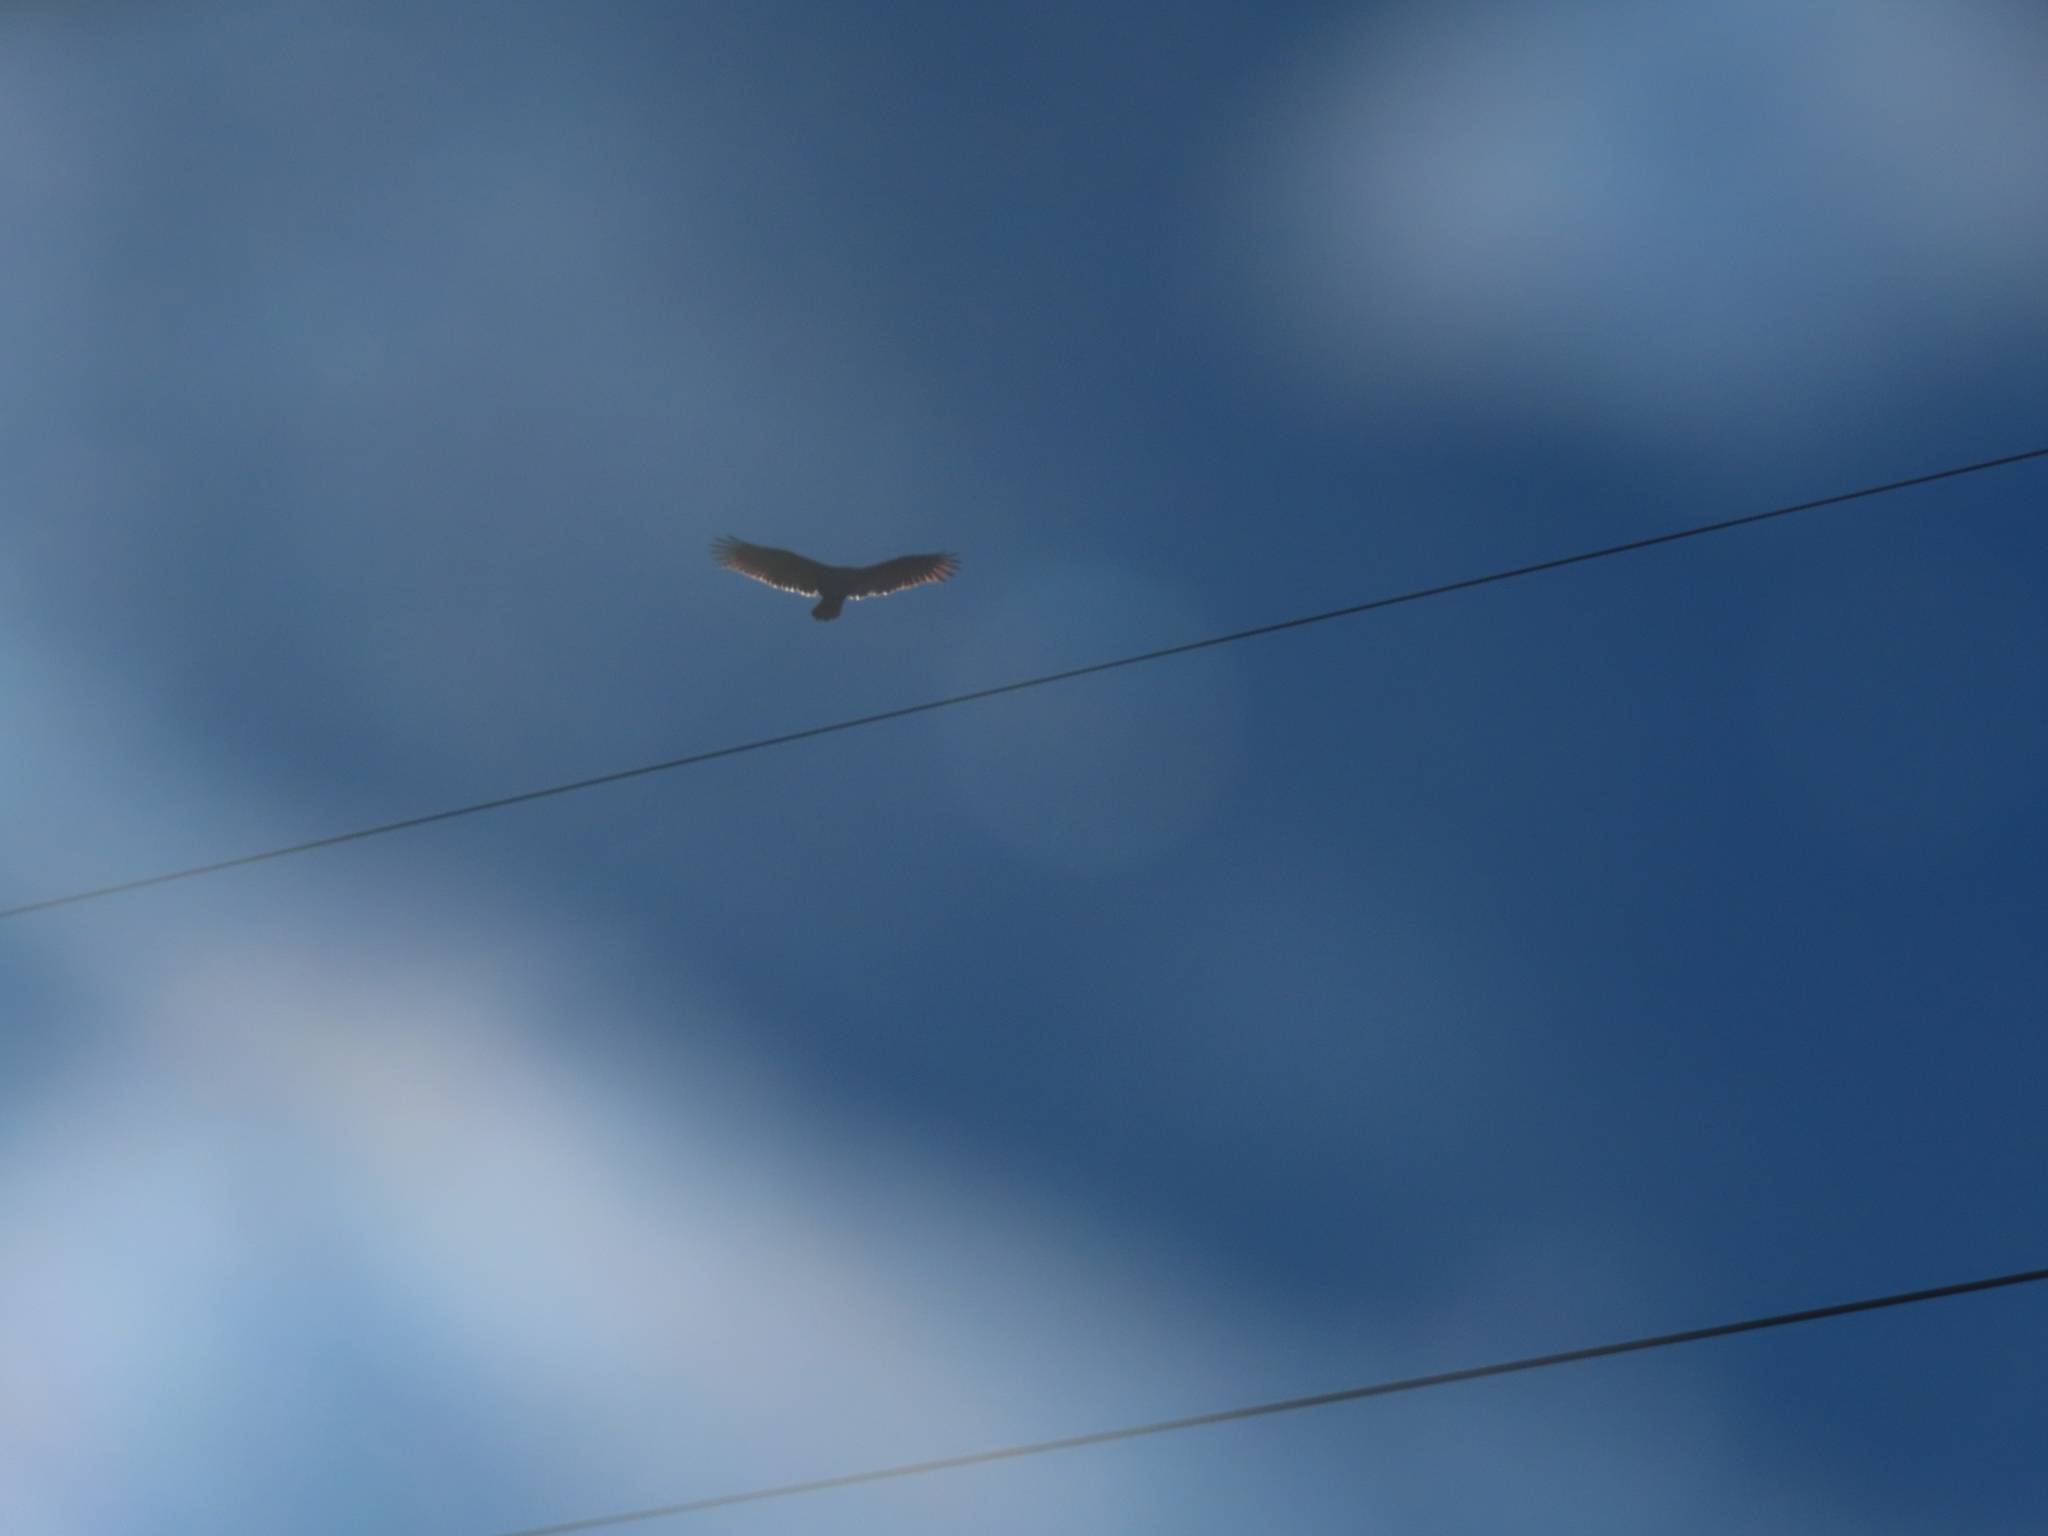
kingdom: Animalia
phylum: Chordata
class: Aves
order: Accipitriformes
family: Cathartidae
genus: Cathartes
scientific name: Cathartes aura
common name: Turkey vulture
